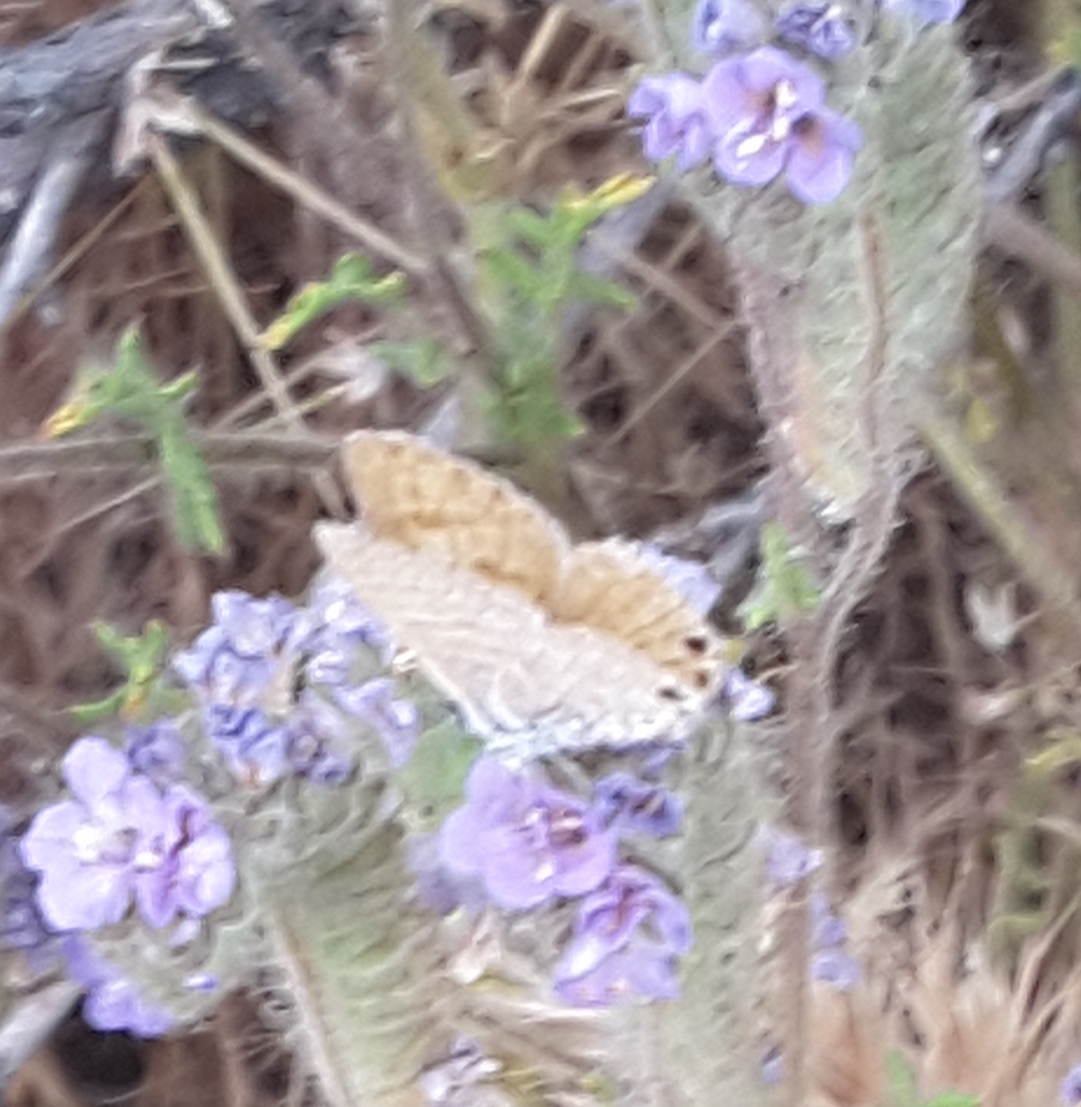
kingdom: Animalia
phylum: Arthropoda
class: Insecta
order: Lepidoptera
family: Lycaenidae
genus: Leptotes
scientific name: Leptotes marina
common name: Marine blue
